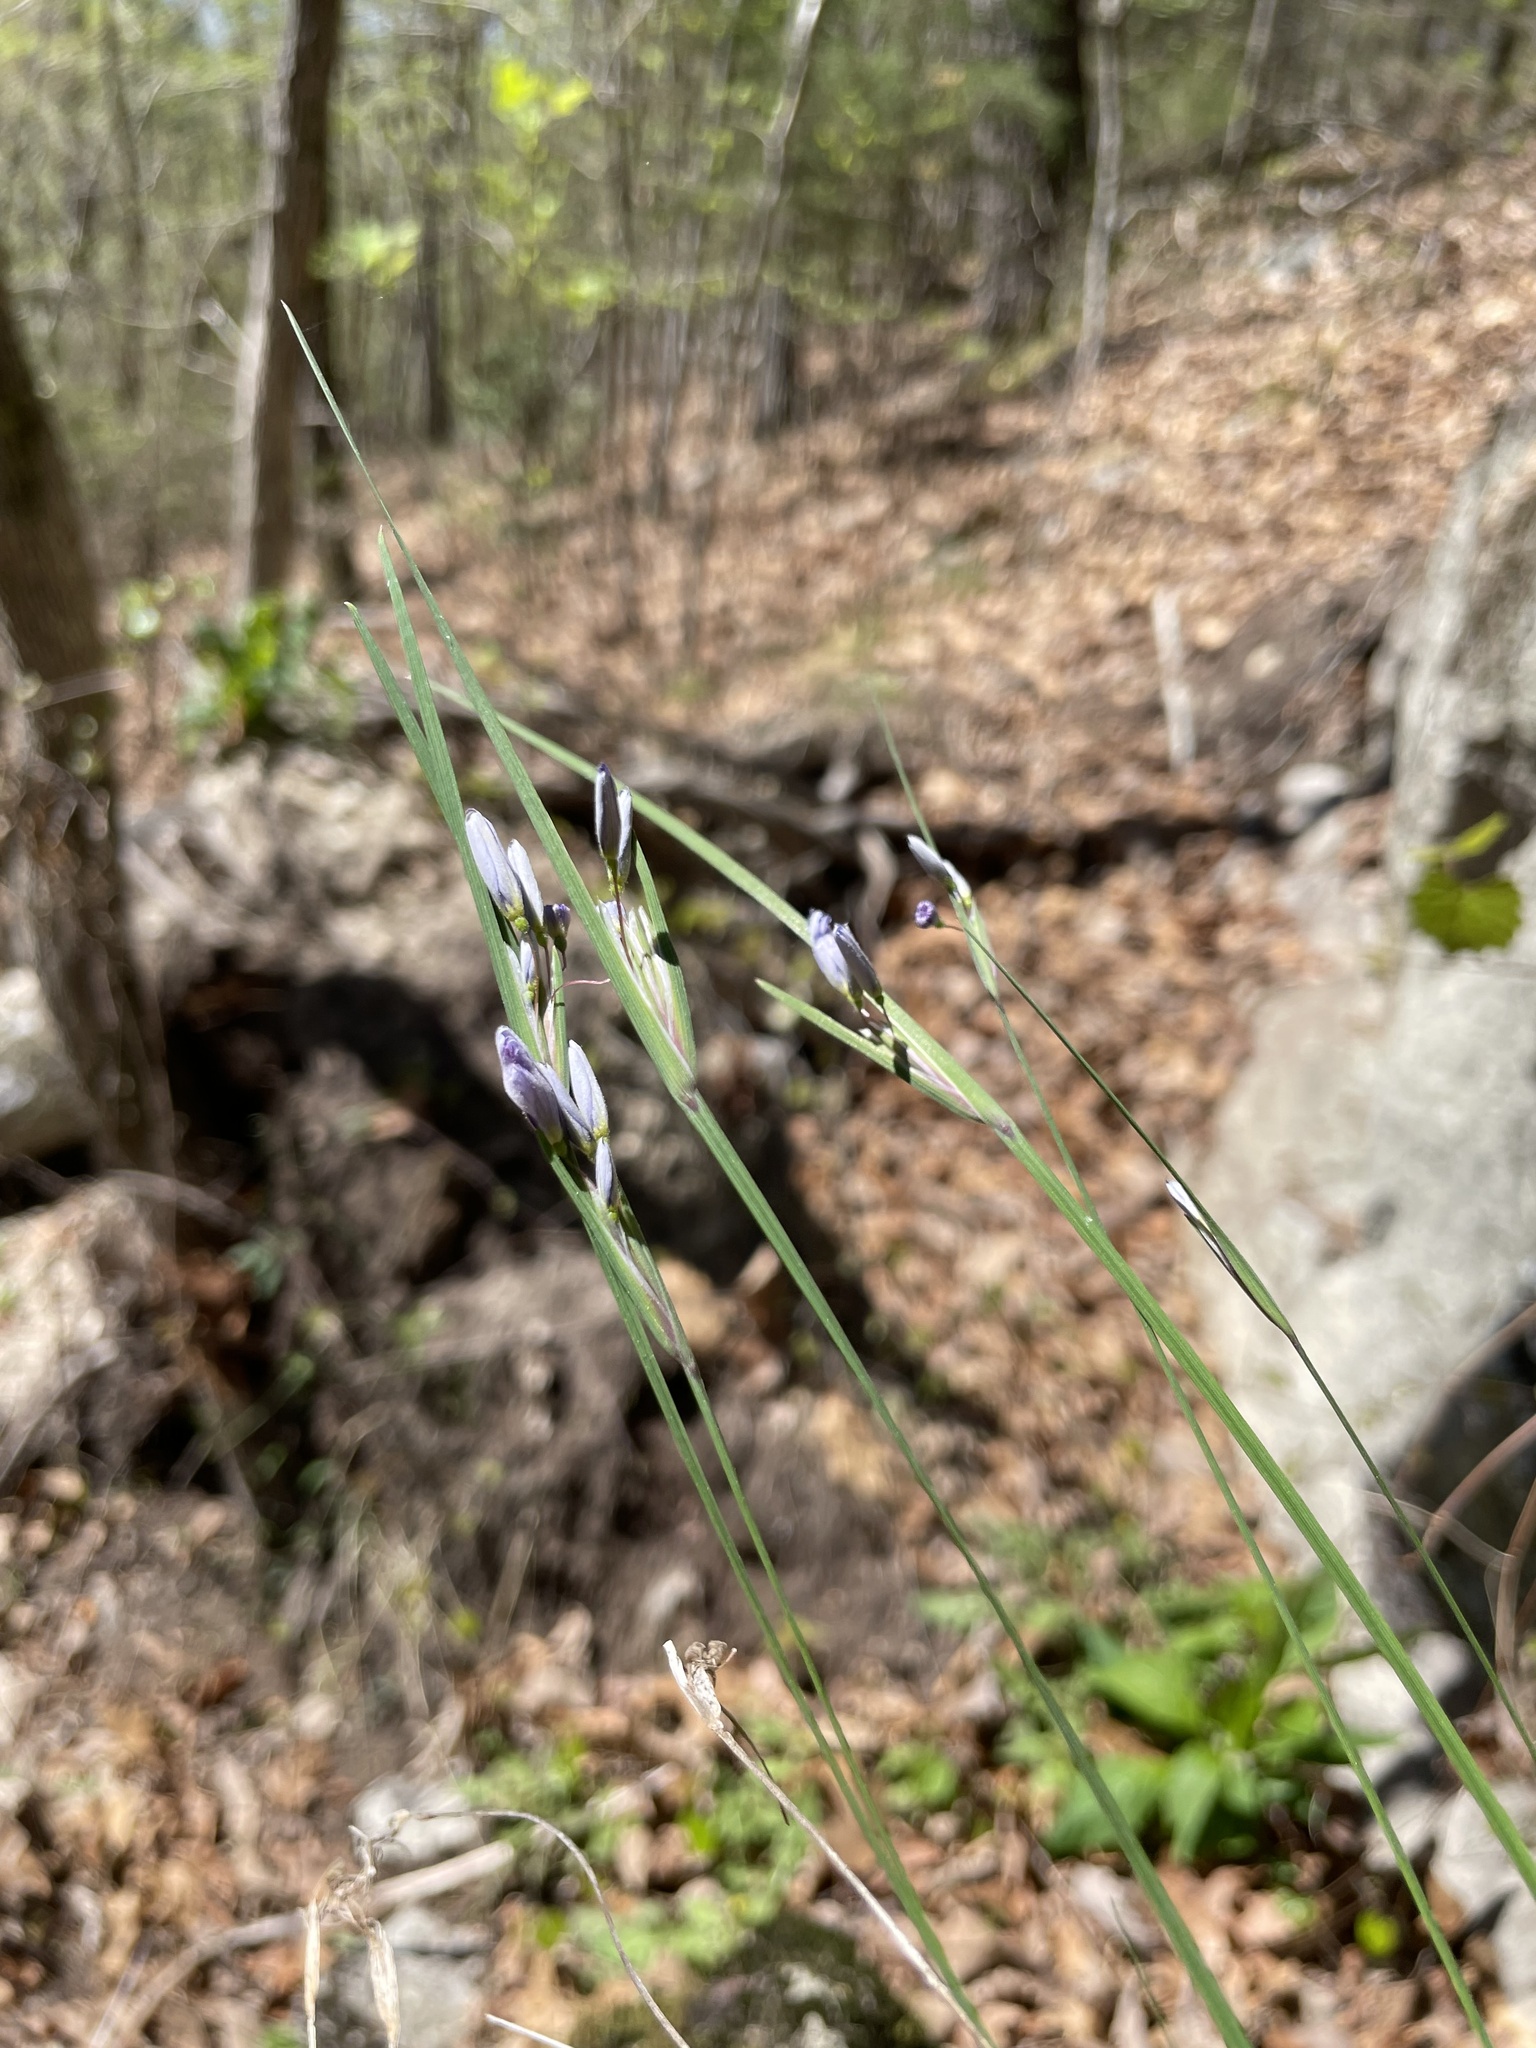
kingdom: Plantae
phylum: Tracheophyta
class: Liliopsida
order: Asparagales
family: Iridaceae
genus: Sisyrinchium
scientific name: Sisyrinchium albidum
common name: Pale blue-eyed-grass
